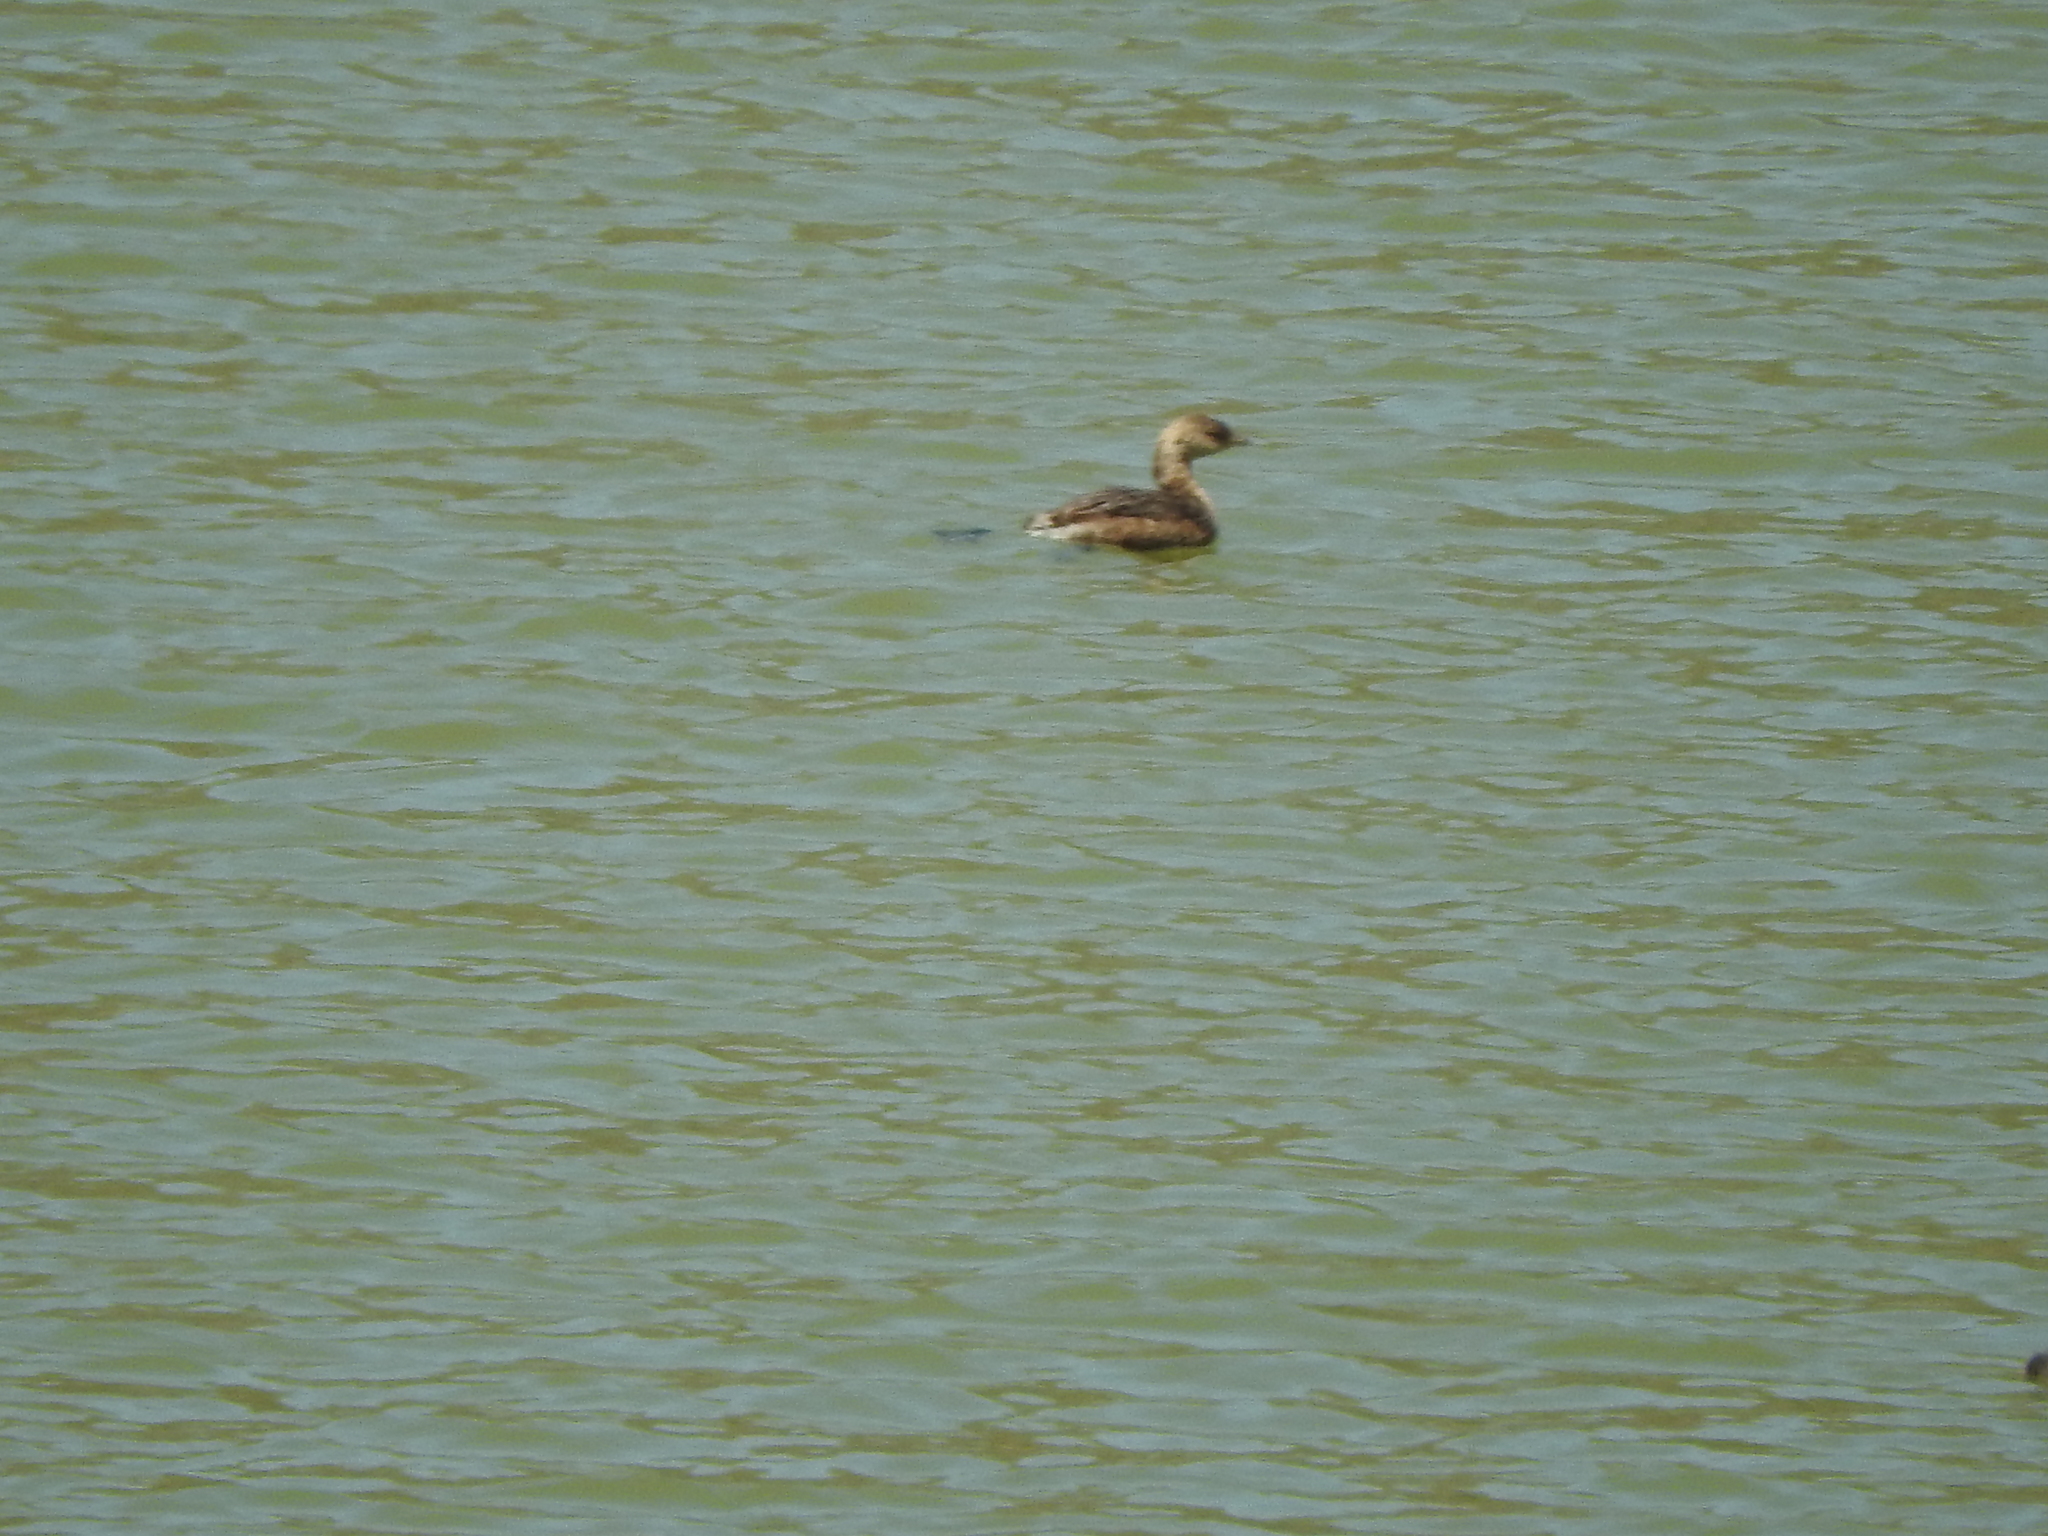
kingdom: Animalia
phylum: Chordata
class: Aves
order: Podicipediformes
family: Podicipedidae
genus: Podilymbus
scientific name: Podilymbus podiceps
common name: Pied-billed grebe
